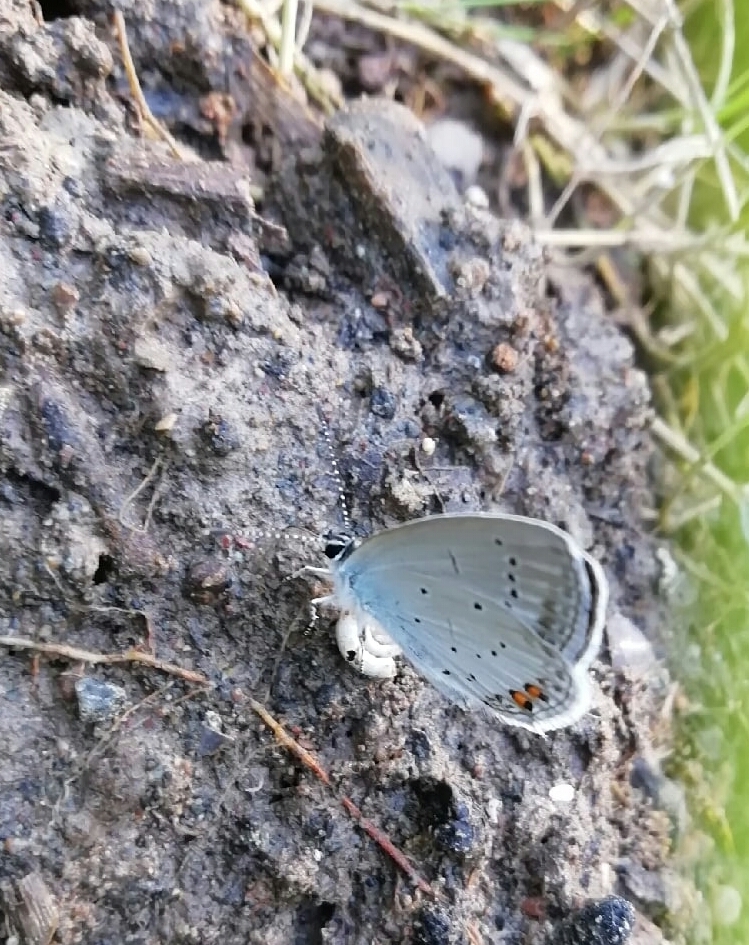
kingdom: Animalia
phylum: Arthropoda
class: Insecta
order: Lepidoptera
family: Lycaenidae
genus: Elkalyce
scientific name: Elkalyce argiades
